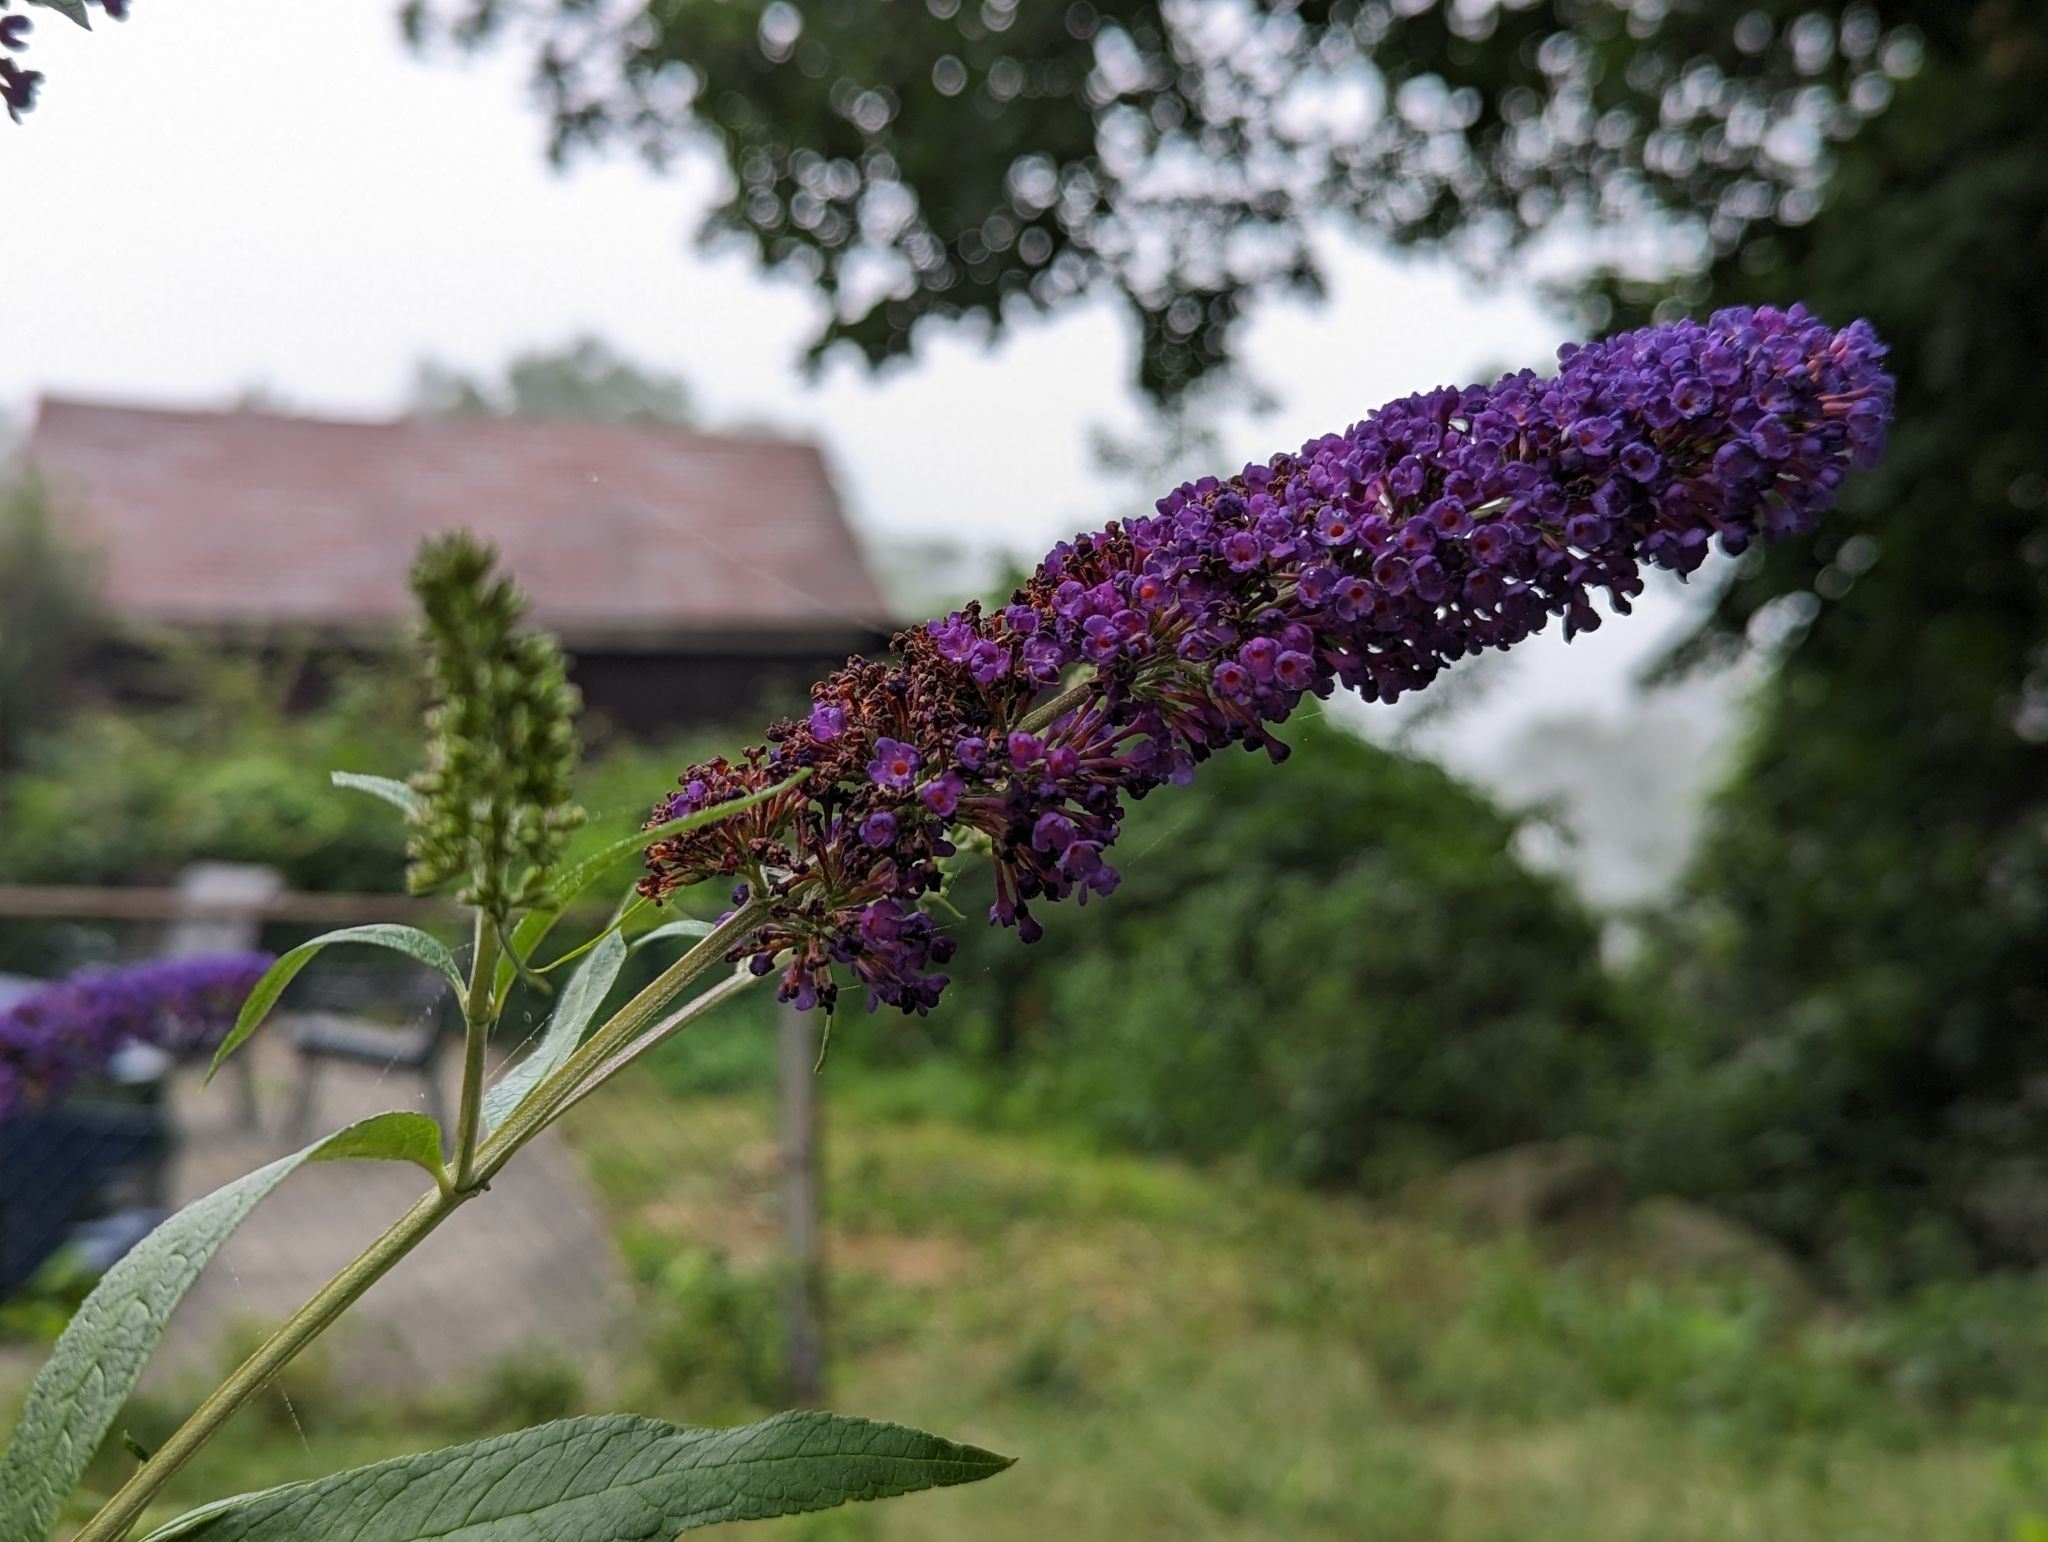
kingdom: Plantae
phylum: Tracheophyta
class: Magnoliopsida
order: Lamiales
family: Scrophulariaceae
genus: Buddleja
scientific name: Buddleja davidii
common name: Butterfly-bush
